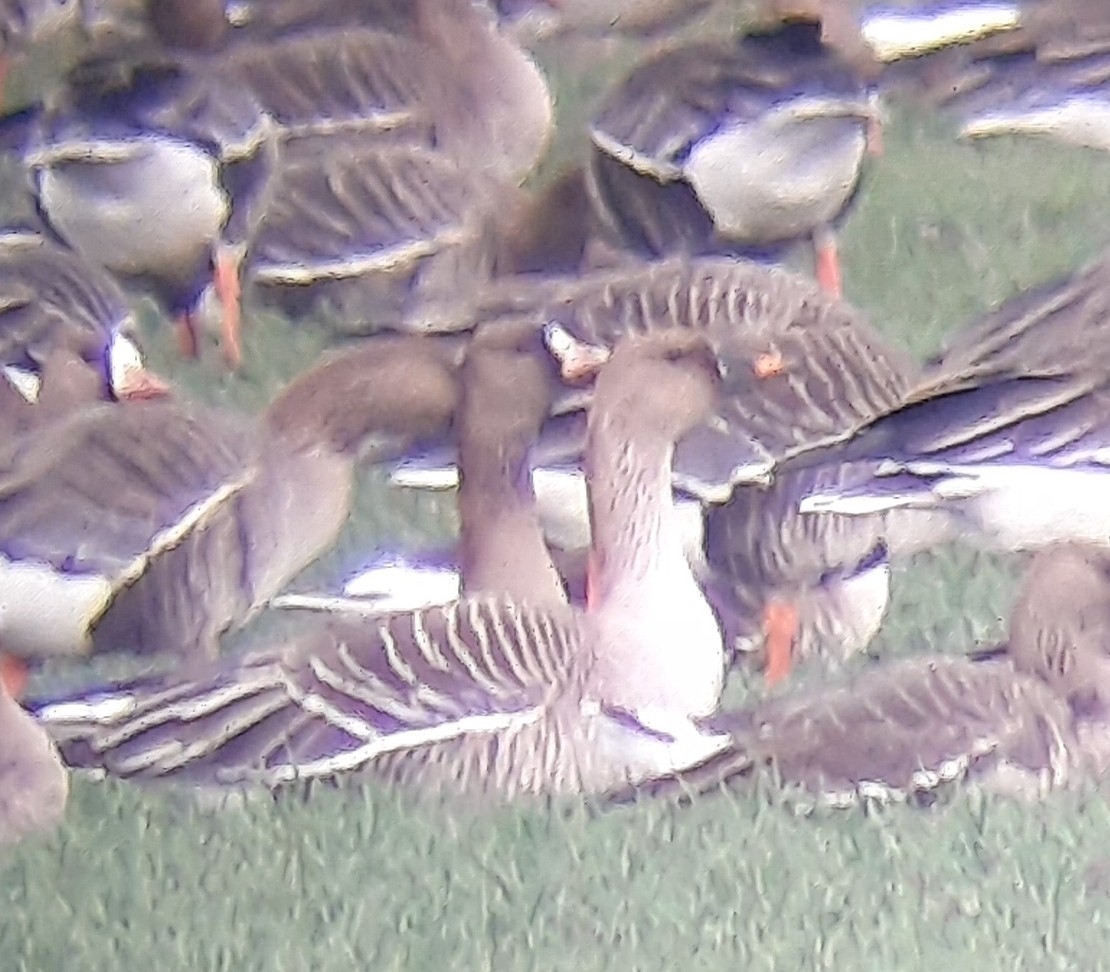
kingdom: Animalia
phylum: Chordata
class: Aves
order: Anseriformes
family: Anatidae
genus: Anser
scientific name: Anser fabalis
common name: Bean goose
